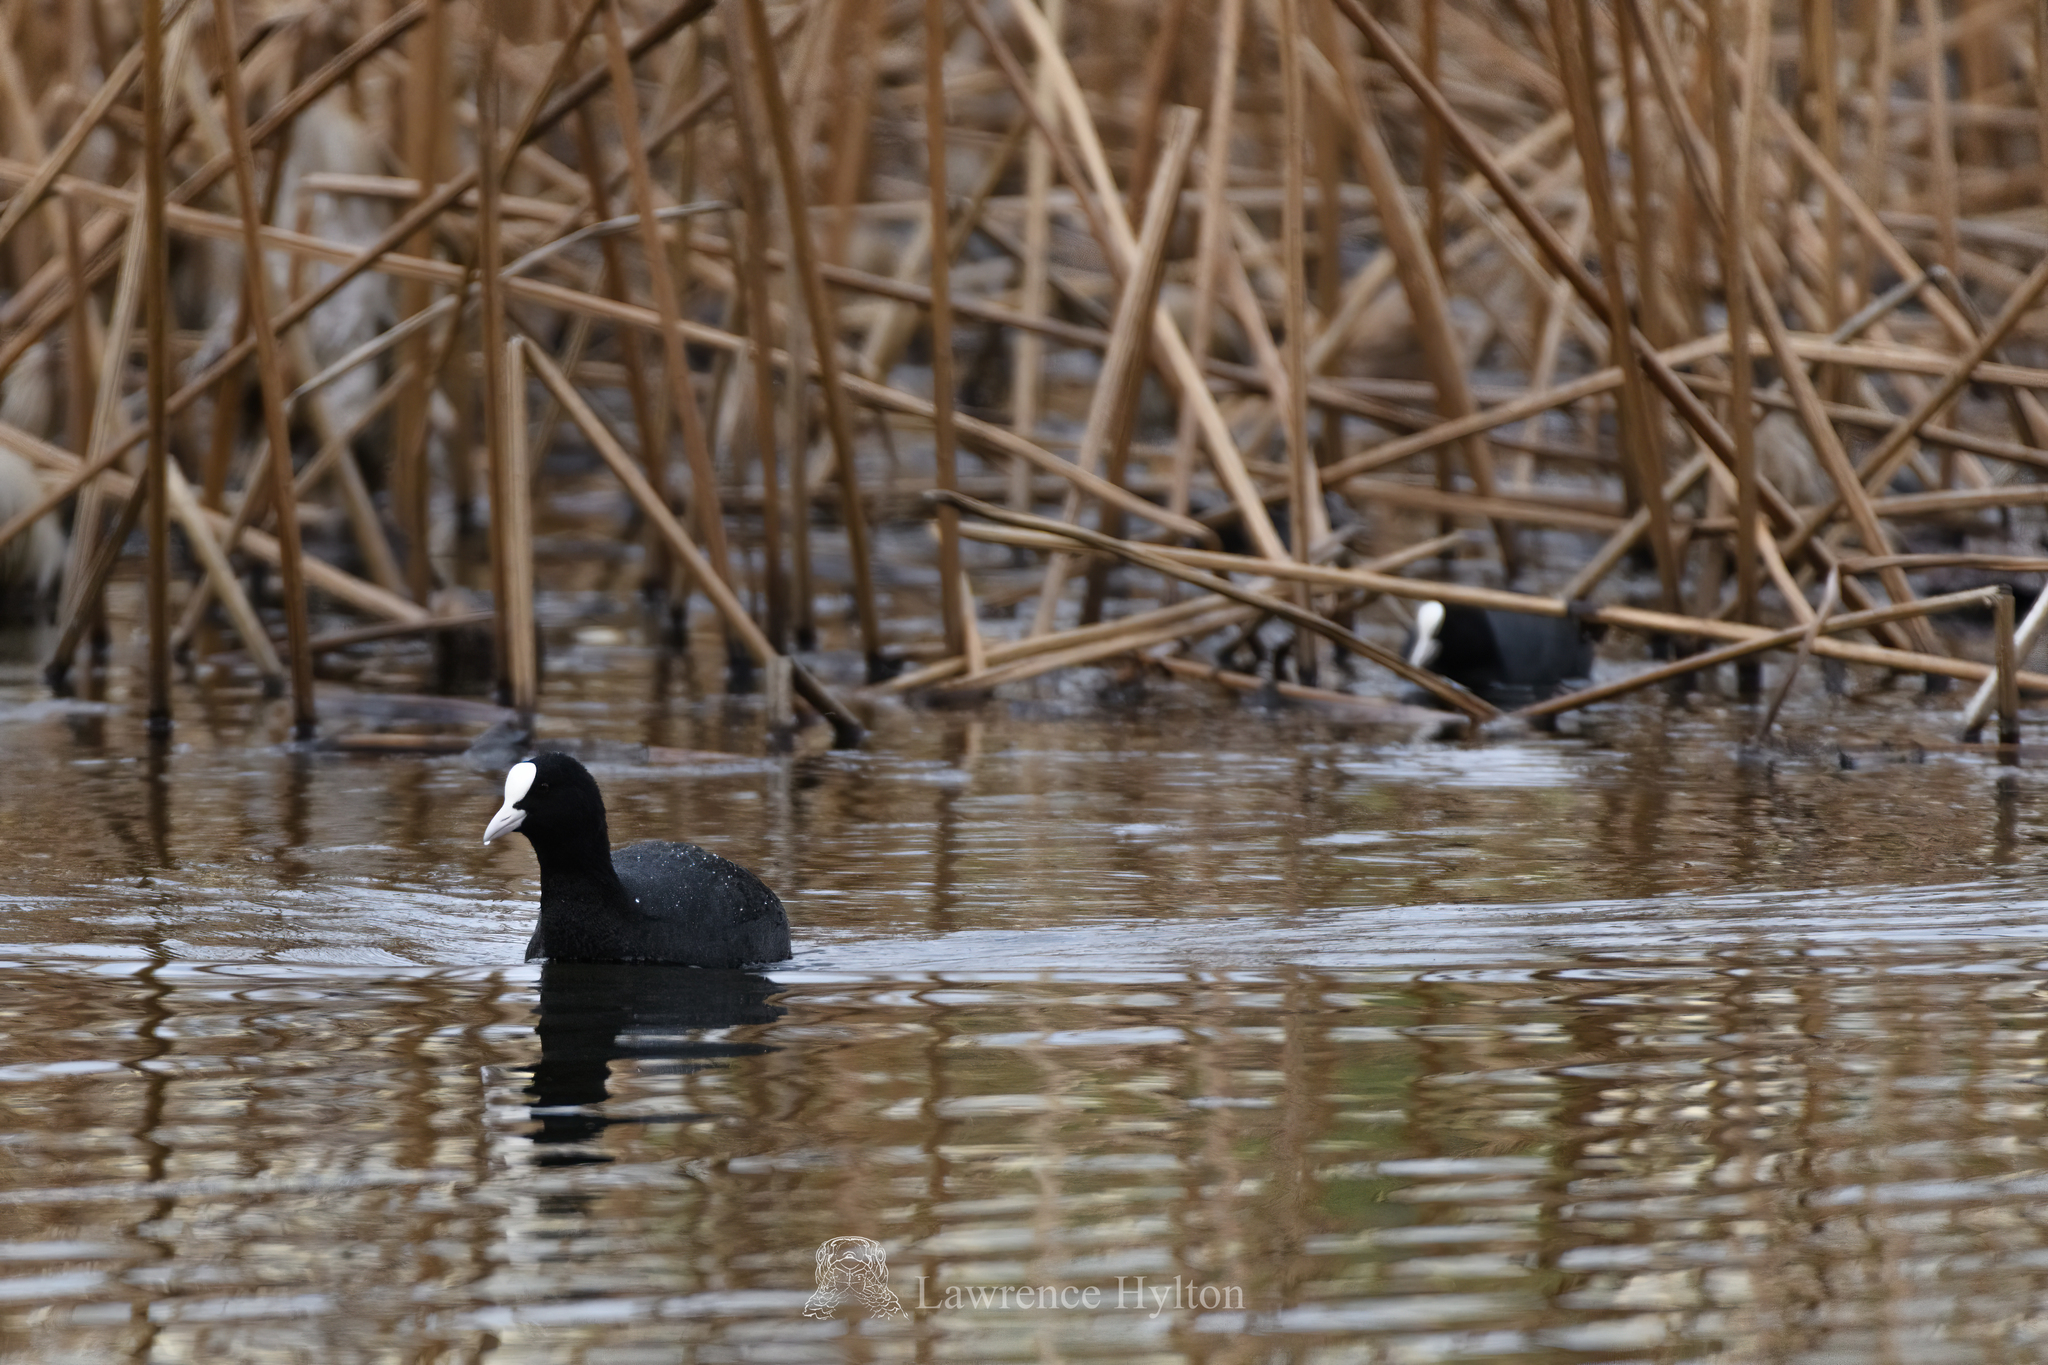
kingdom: Animalia
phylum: Chordata
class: Aves
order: Gruiformes
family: Rallidae
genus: Fulica
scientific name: Fulica atra
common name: Eurasian coot
